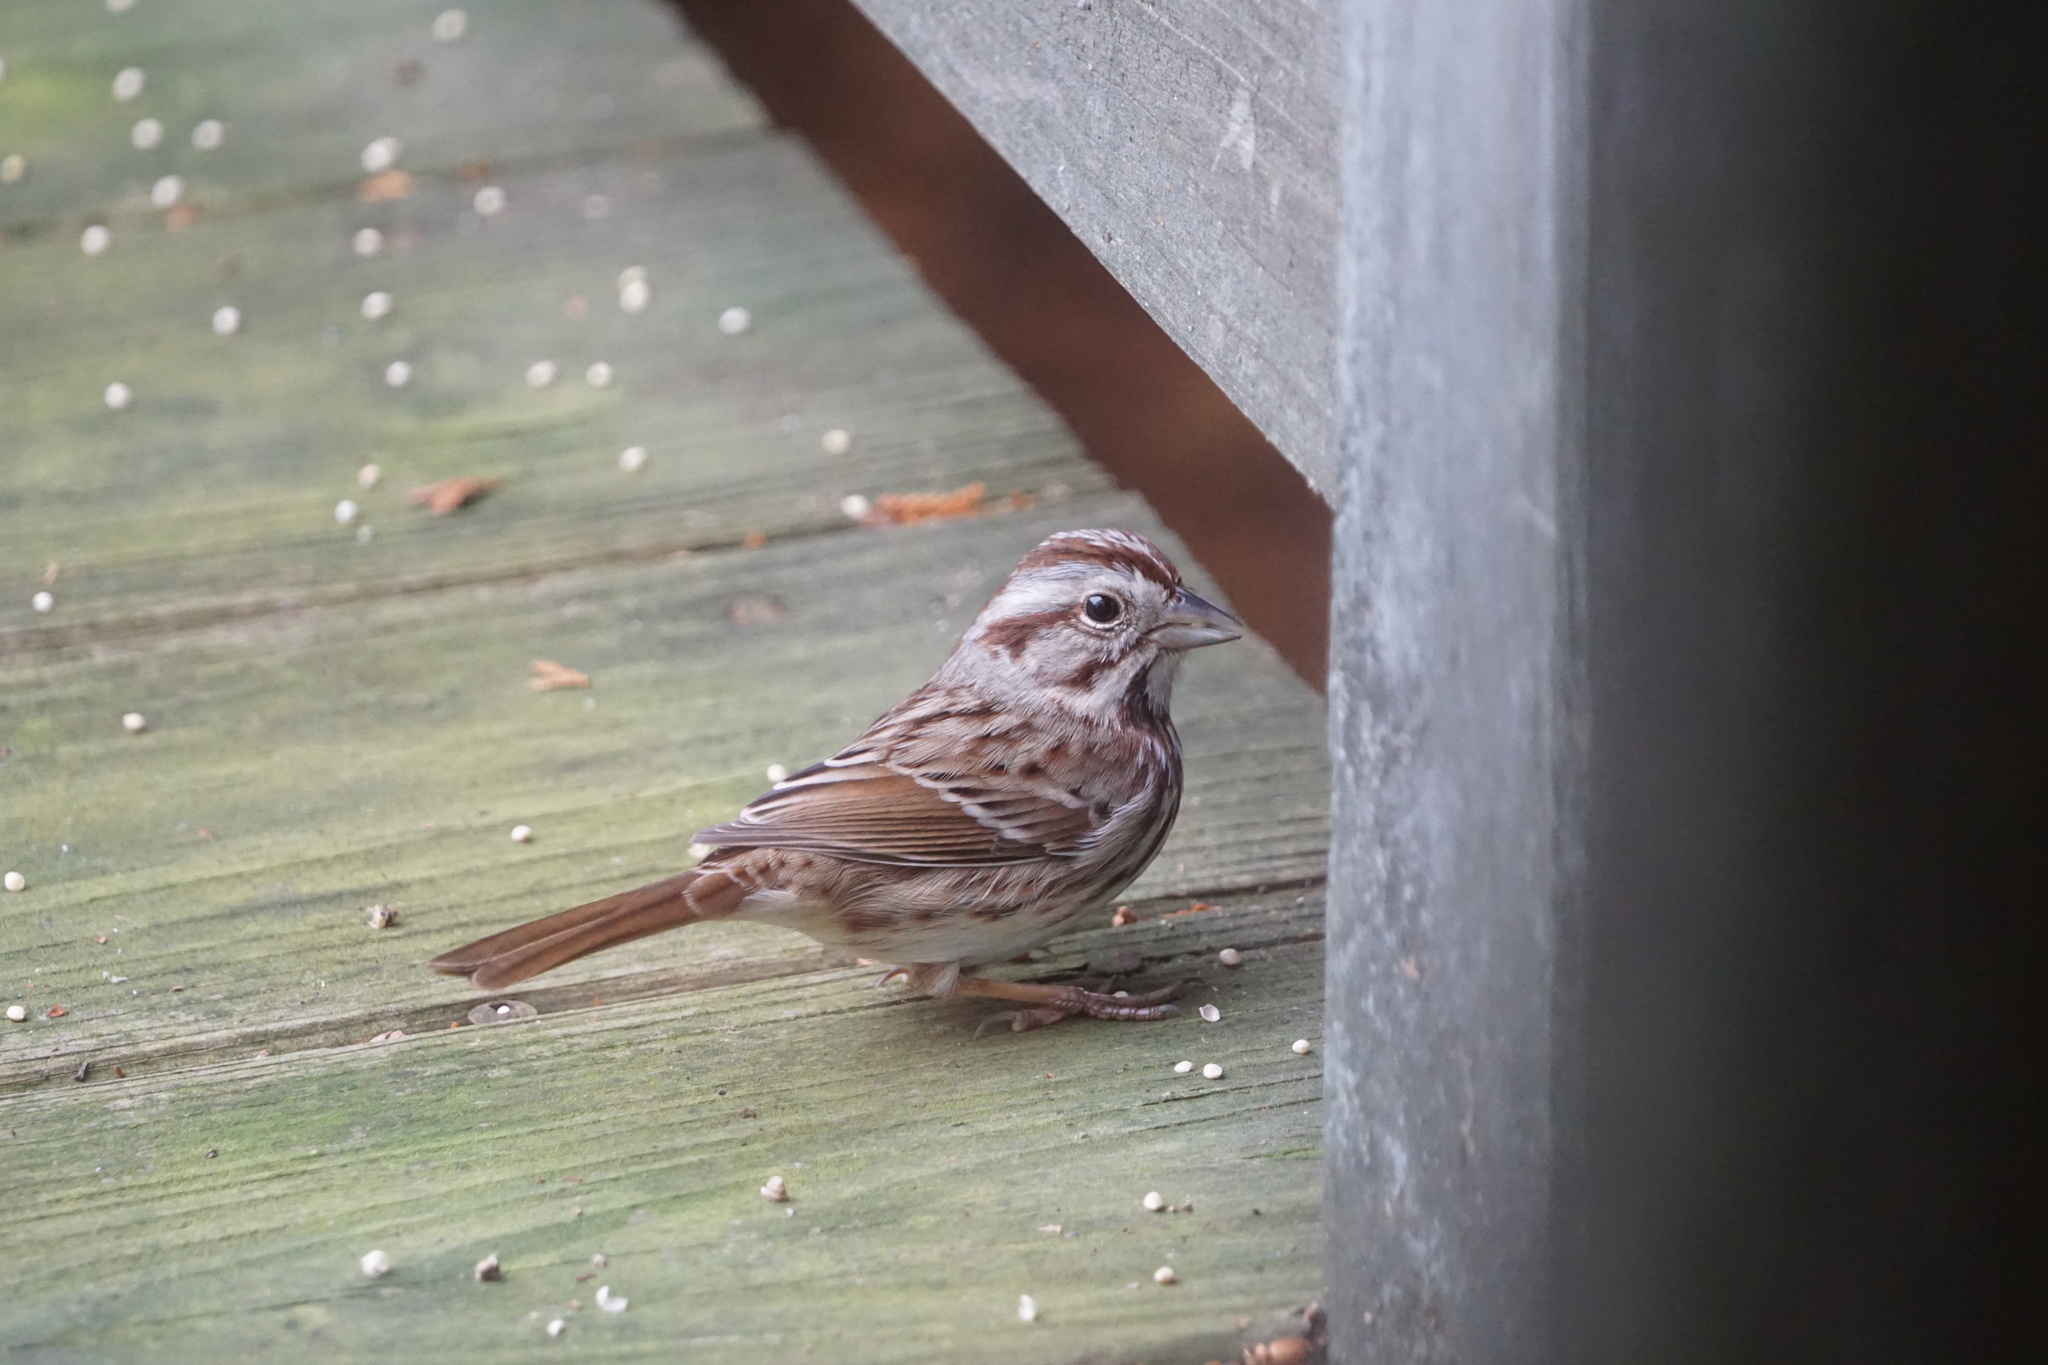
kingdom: Animalia
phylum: Chordata
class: Aves
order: Passeriformes
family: Passerellidae
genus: Melospiza
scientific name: Melospiza melodia
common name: Song sparrow
